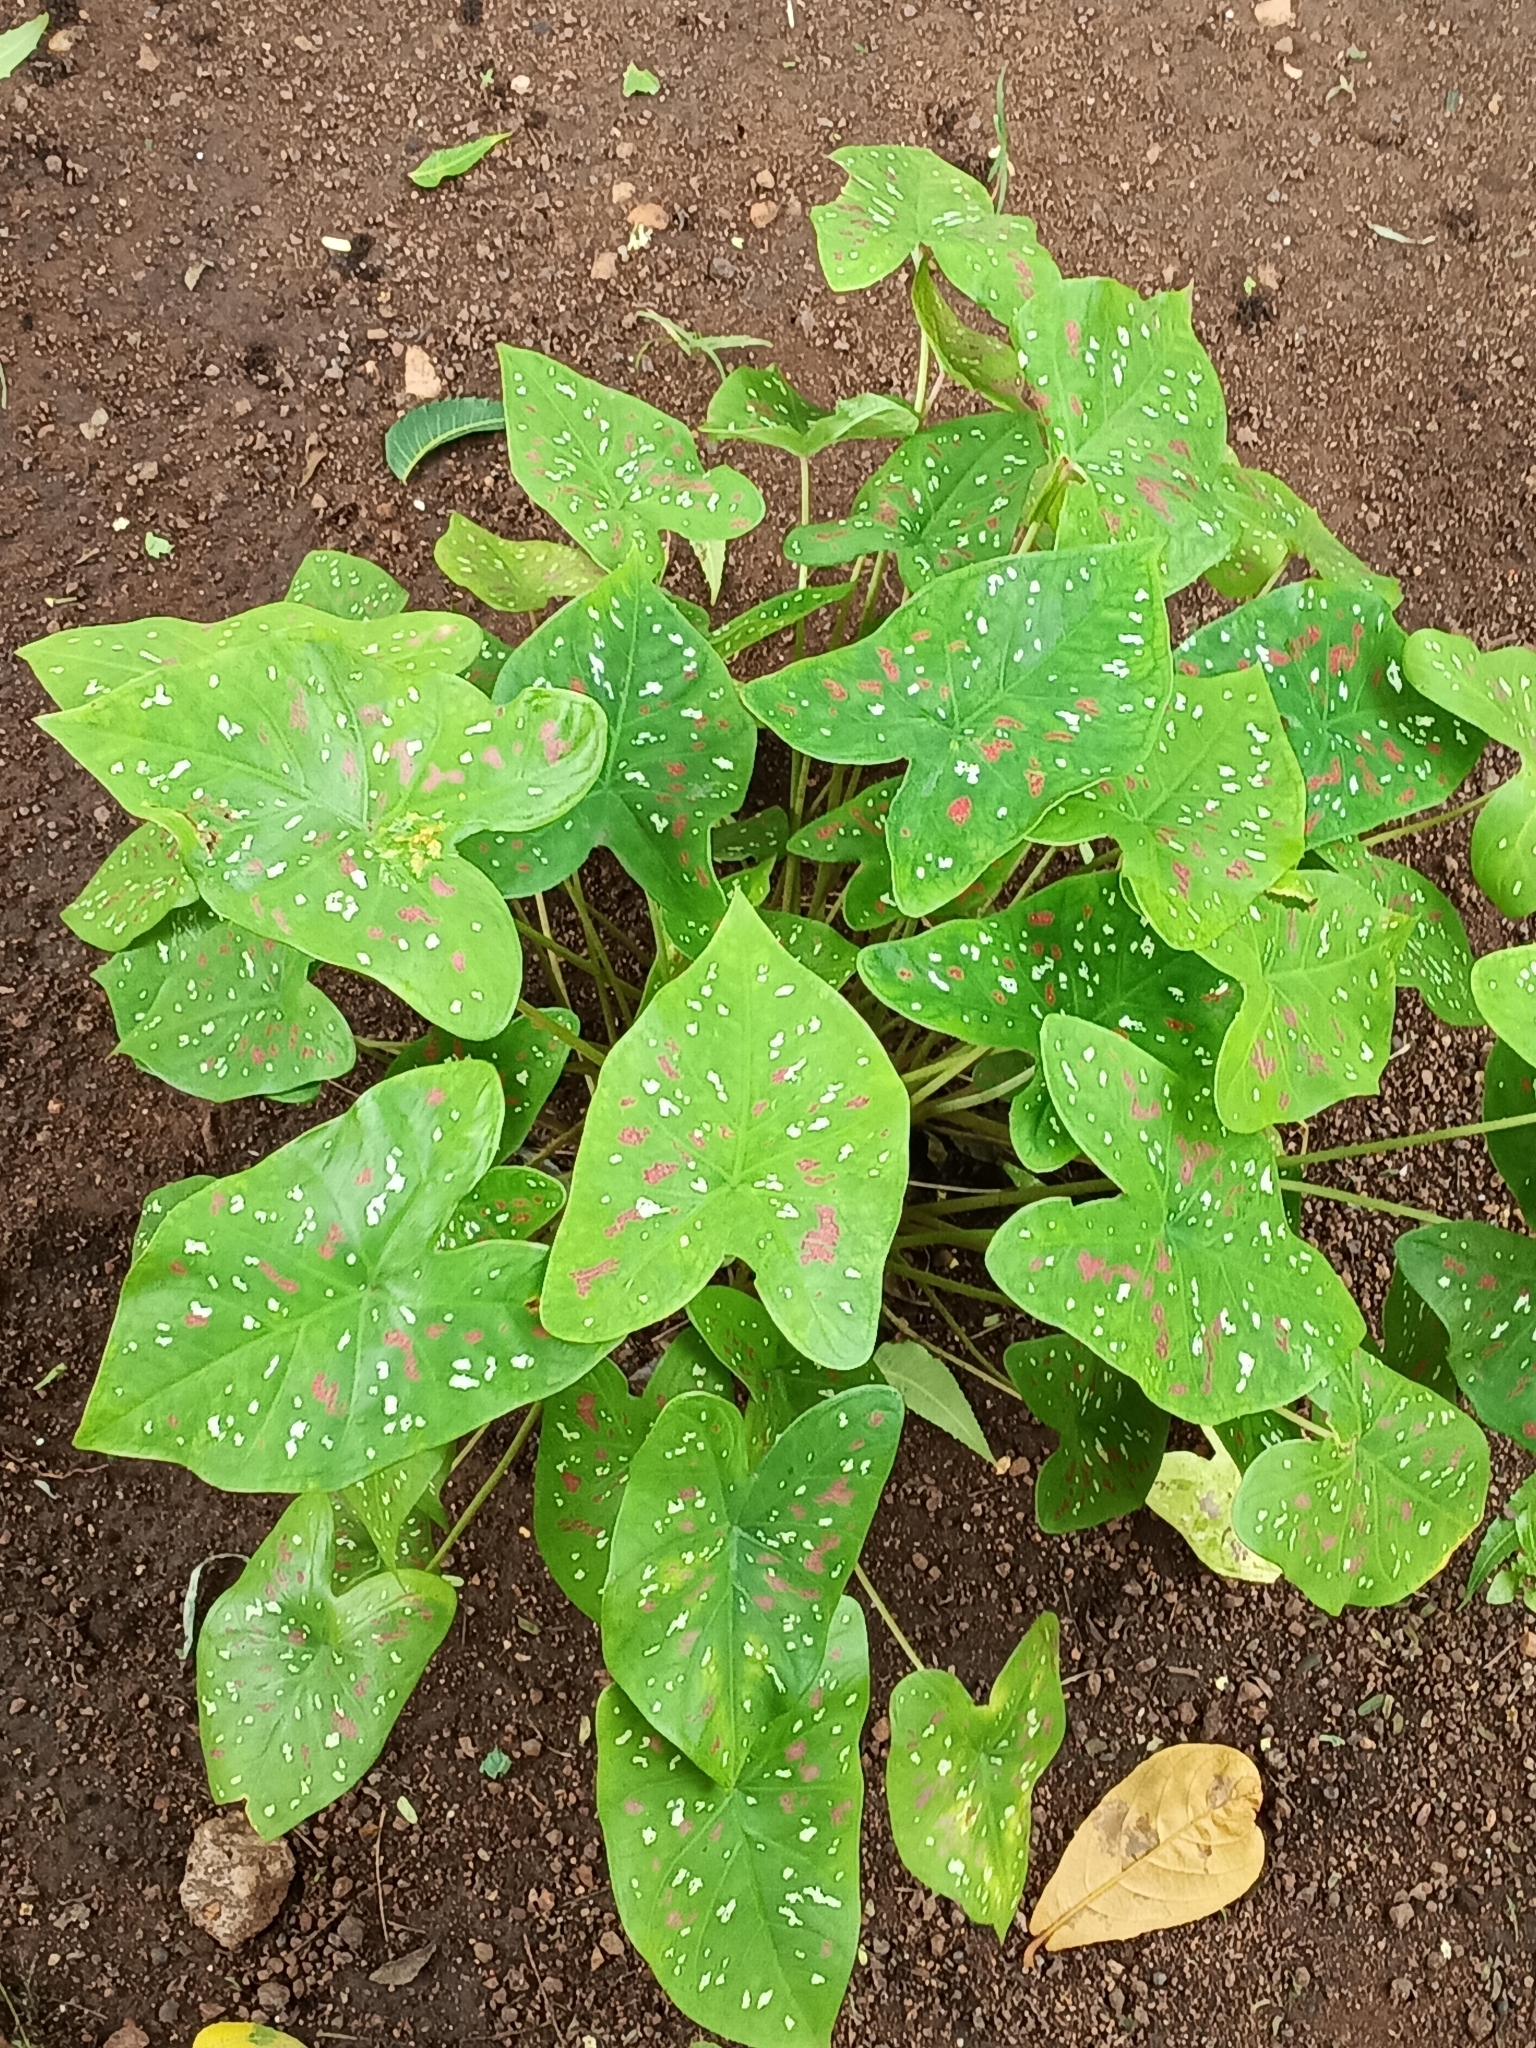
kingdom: Plantae
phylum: Tracheophyta
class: Liliopsida
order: Alismatales
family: Araceae
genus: Caladium
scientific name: Caladium bicolor
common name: Artist's pallet
